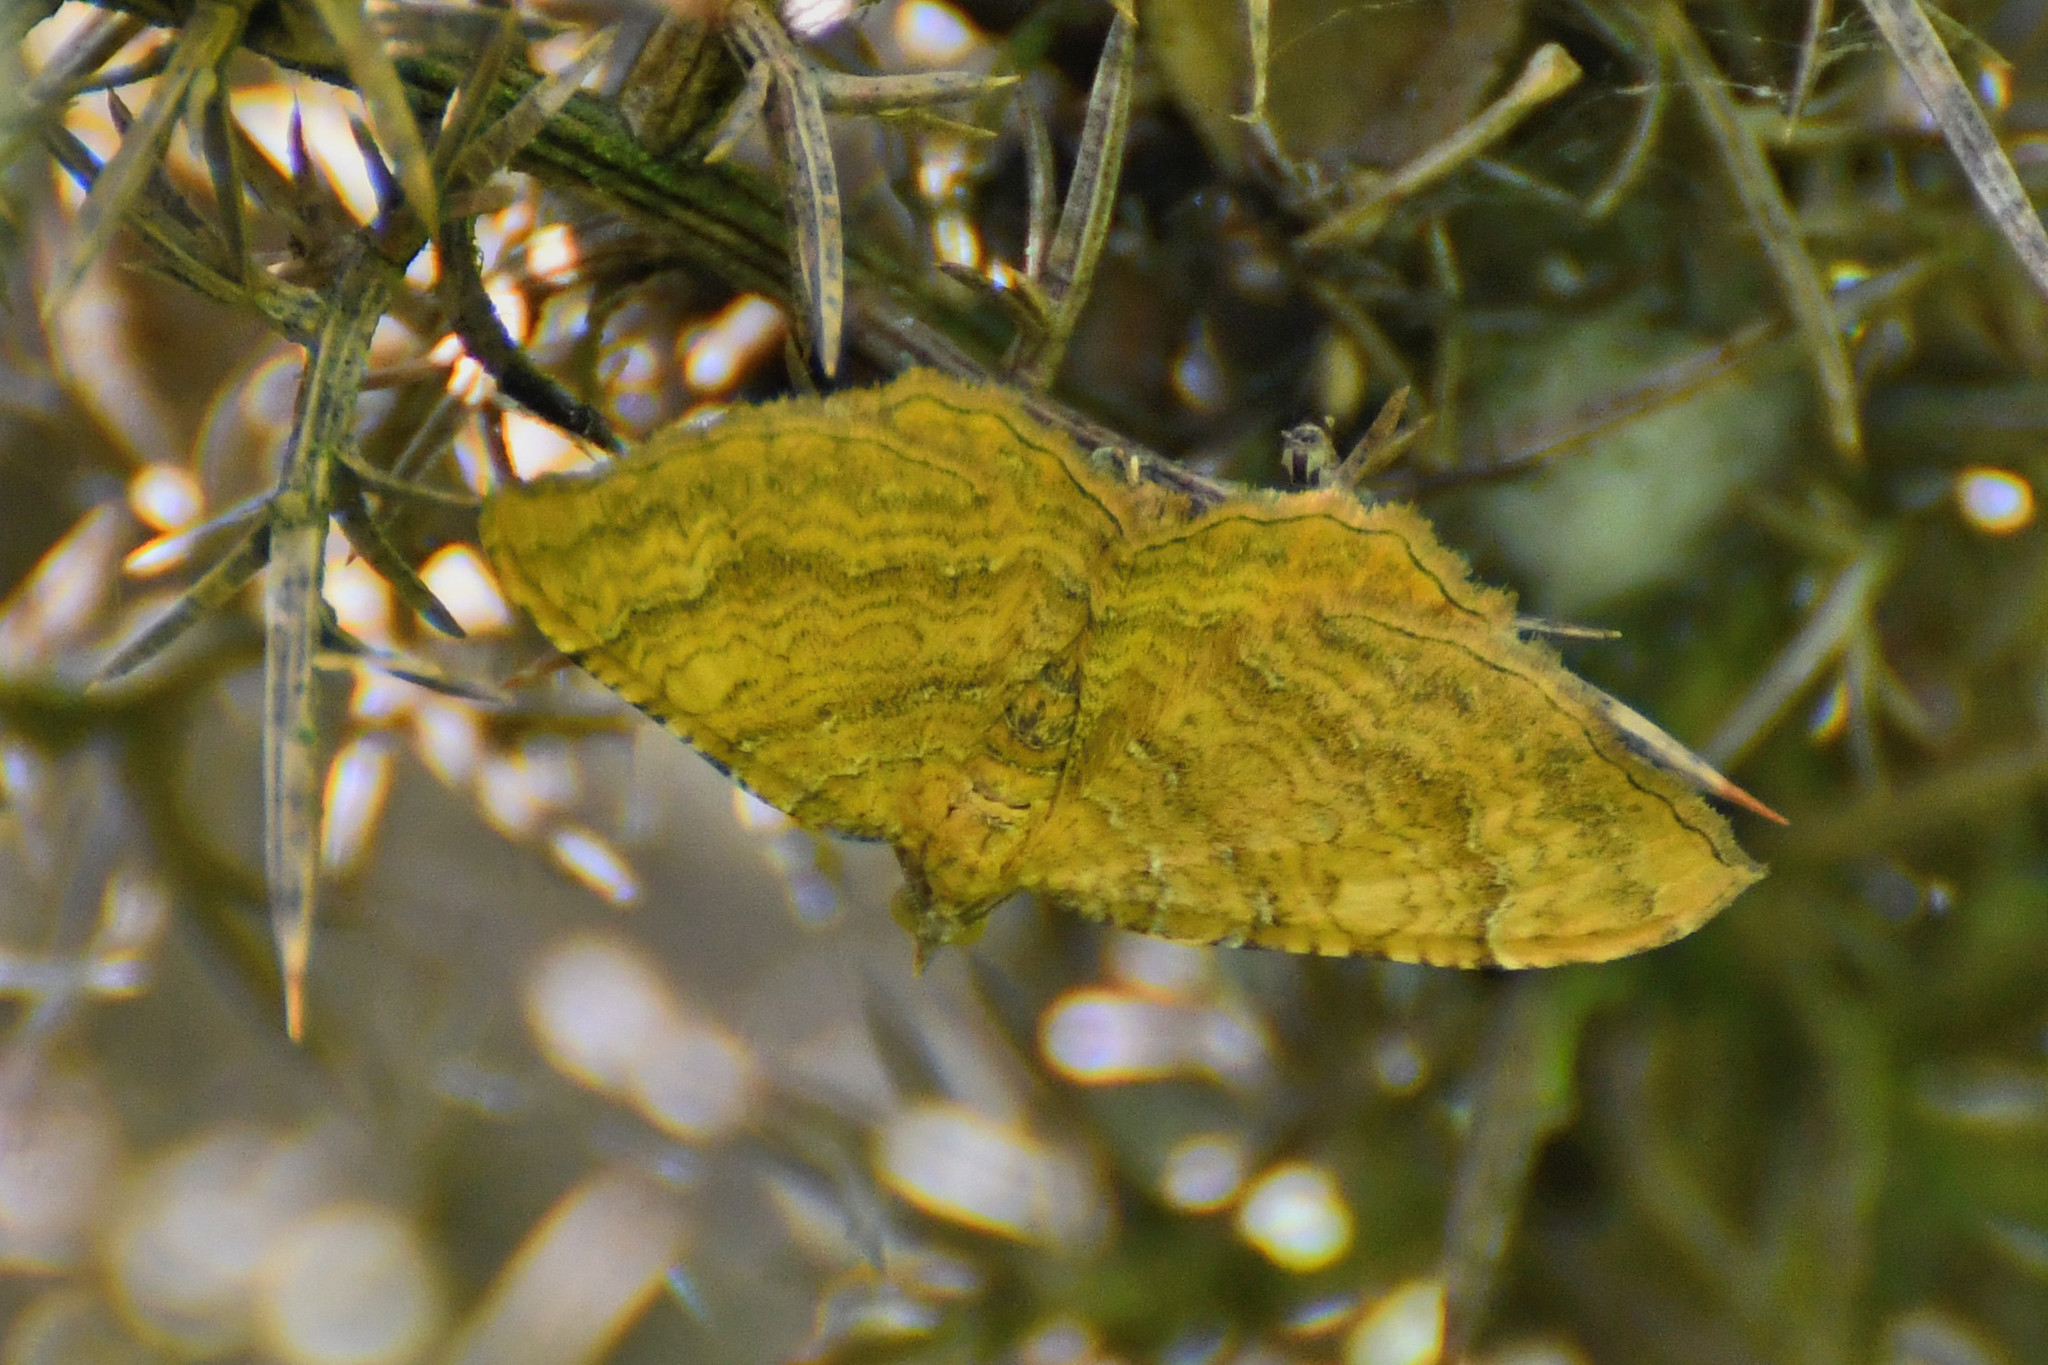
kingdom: Animalia
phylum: Arthropoda
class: Insecta
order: Lepidoptera
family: Geometridae
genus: Camptogramma
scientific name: Camptogramma bilineata
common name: Yellow shell
